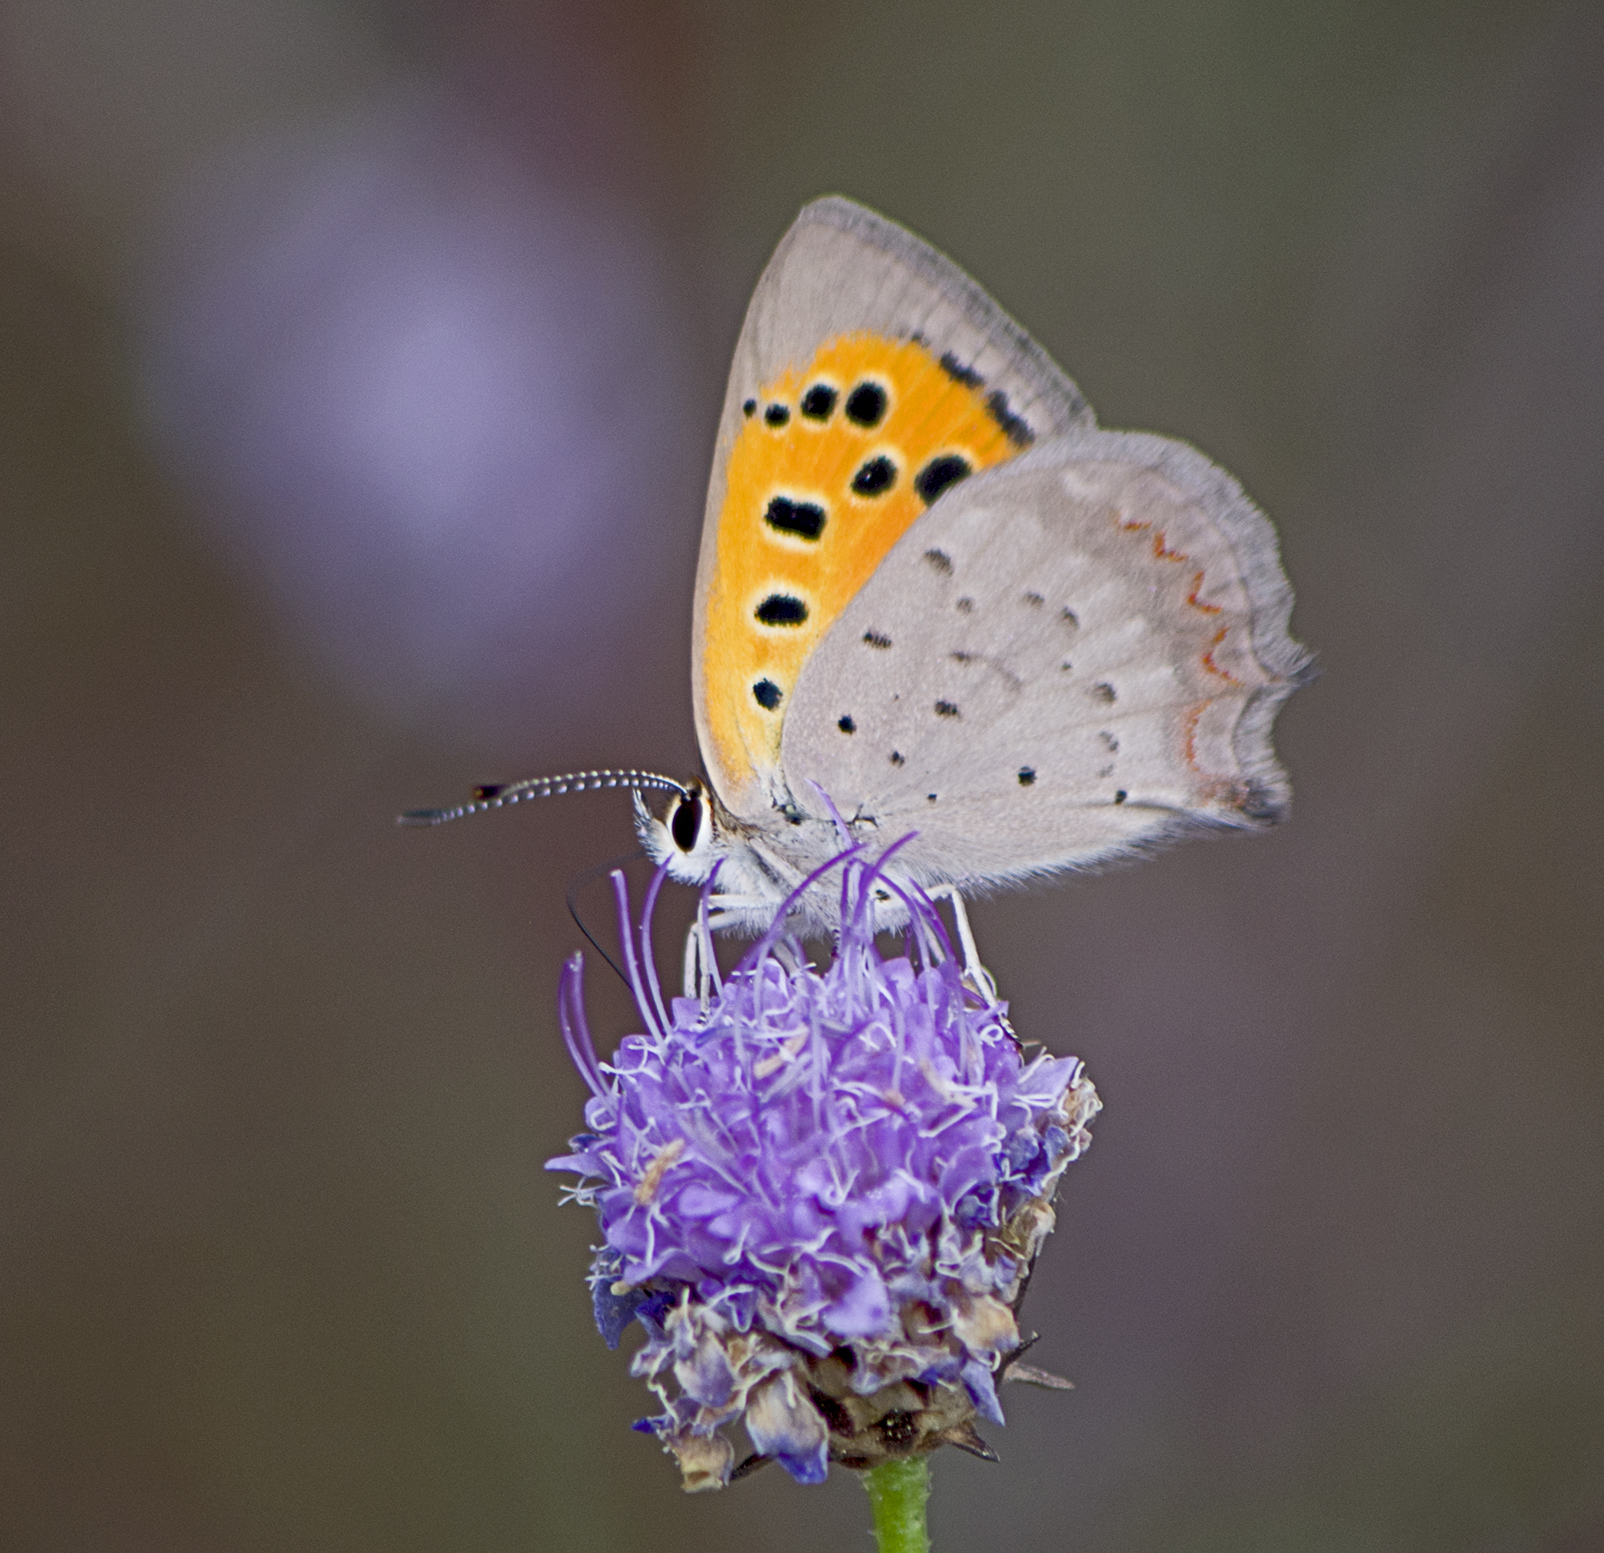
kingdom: Animalia
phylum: Arthropoda
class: Insecta
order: Lepidoptera
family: Lycaenidae
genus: Lycaena
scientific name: Lycaena phlaeas
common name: Small copper
